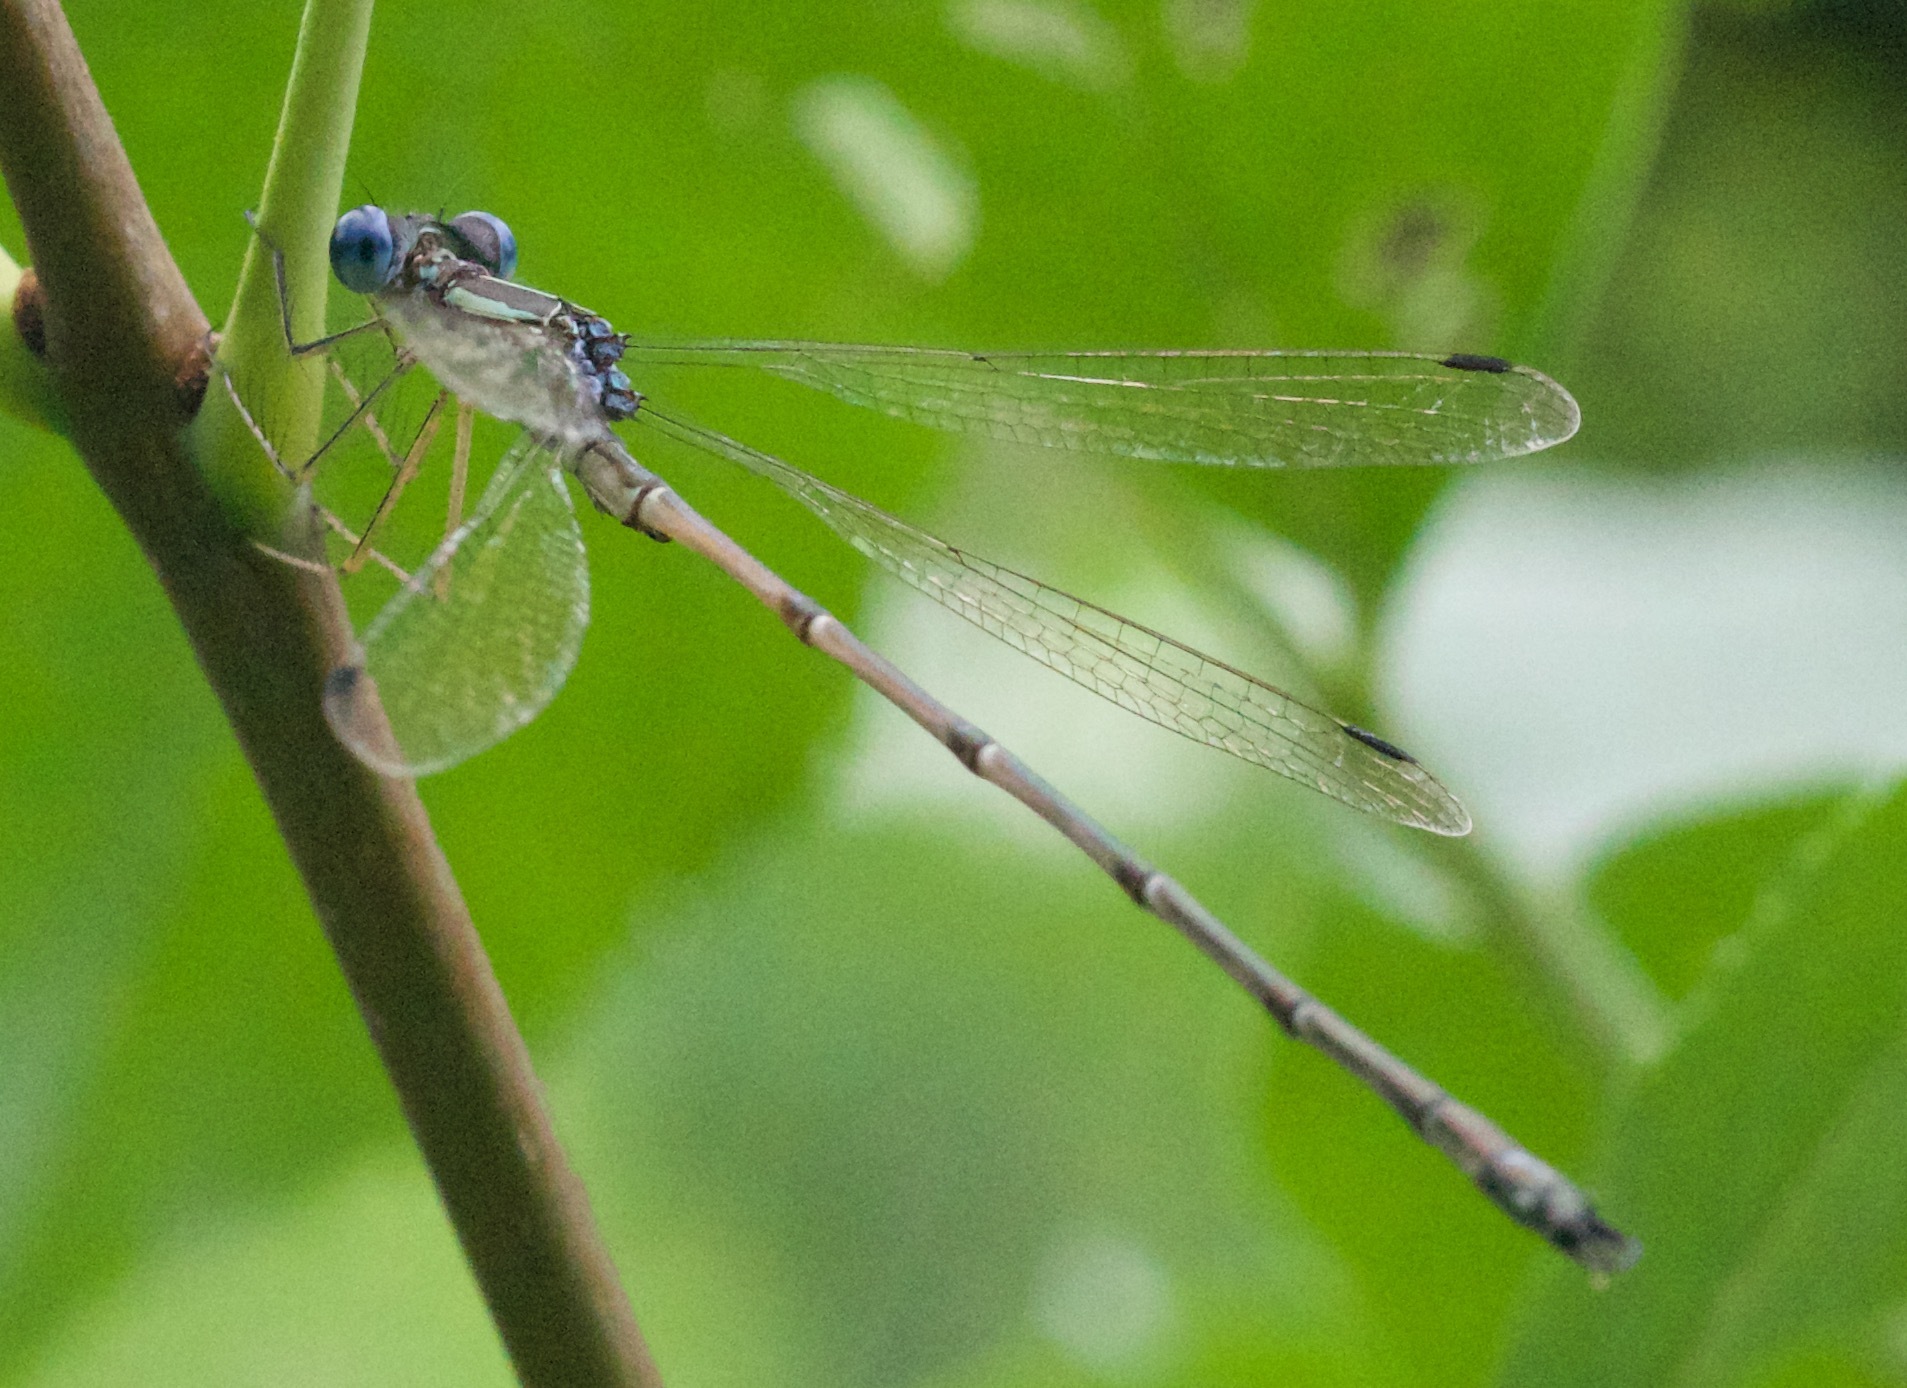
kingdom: Animalia
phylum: Arthropoda
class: Insecta
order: Odonata
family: Lestidae
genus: Lestes
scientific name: Lestes rectangularis
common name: Slender spreadwing
